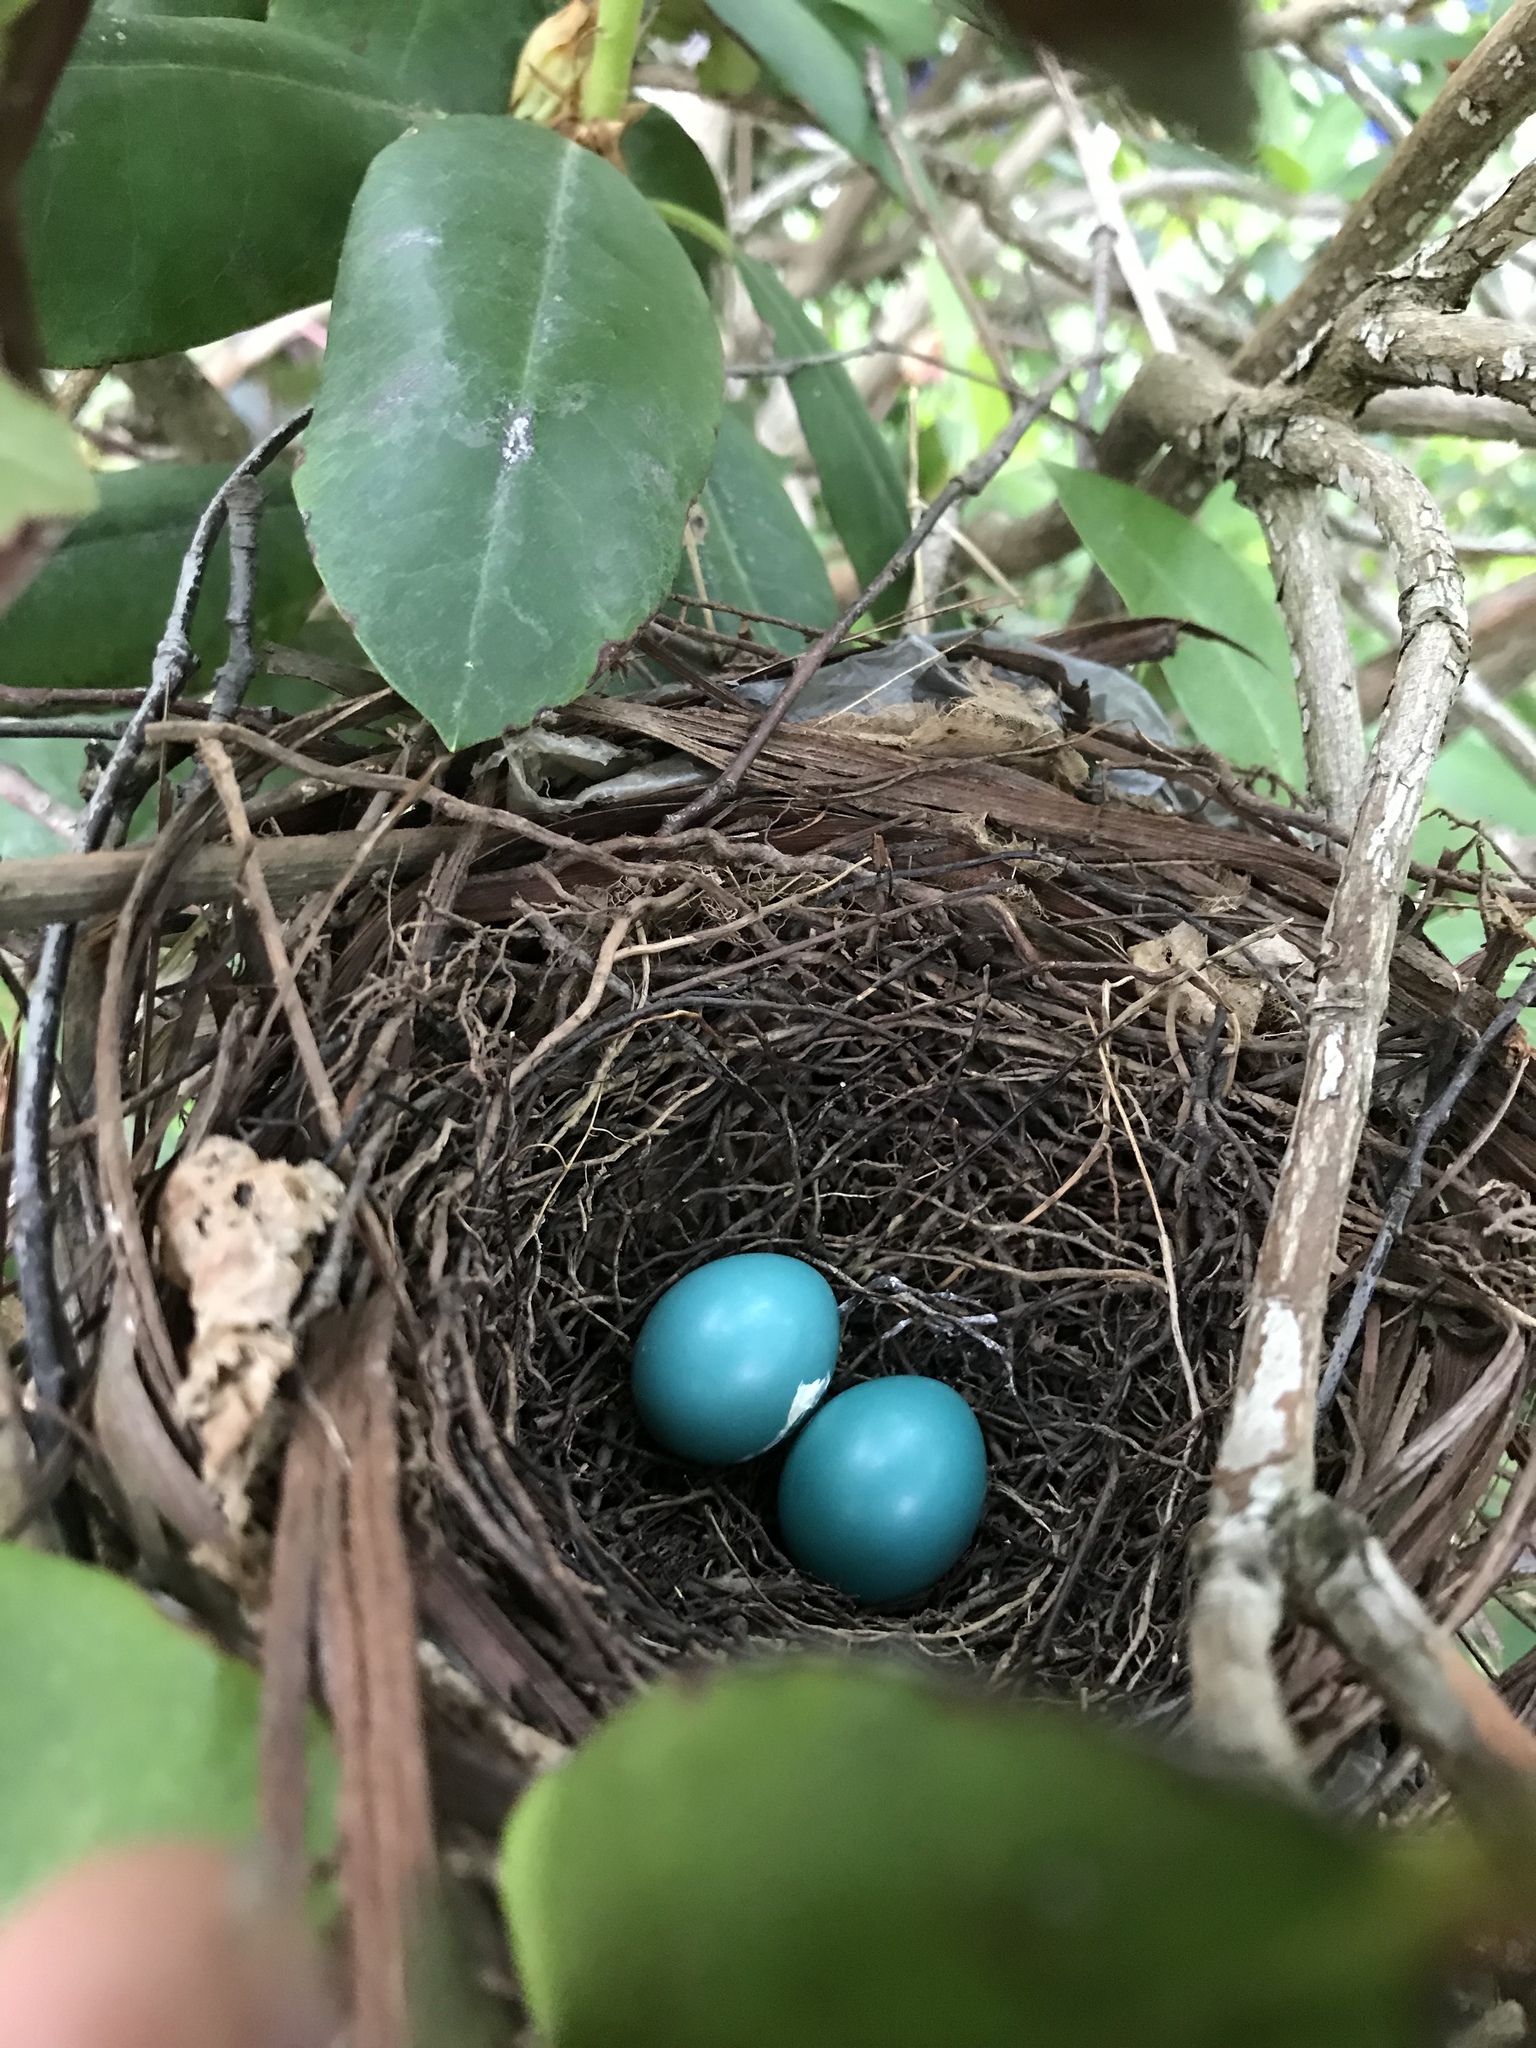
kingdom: Animalia
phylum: Chordata
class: Aves
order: Passeriformes
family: Turdidae
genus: Turdus
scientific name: Turdus migratorius
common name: American robin
